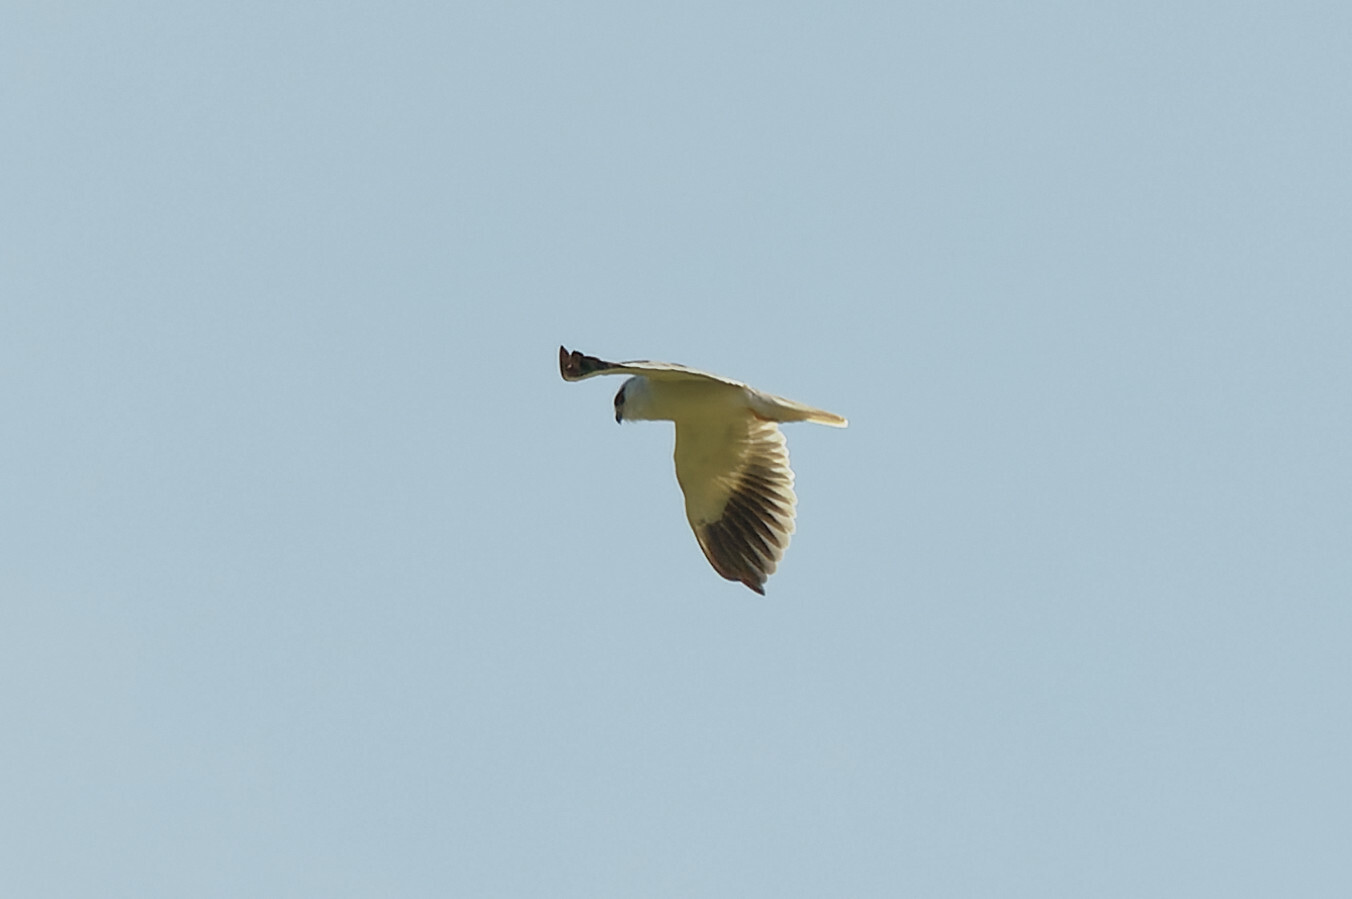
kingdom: Animalia
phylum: Chordata
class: Aves
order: Accipitriformes
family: Accipitridae
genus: Elanus
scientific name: Elanus caeruleus
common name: Black-winged kite
